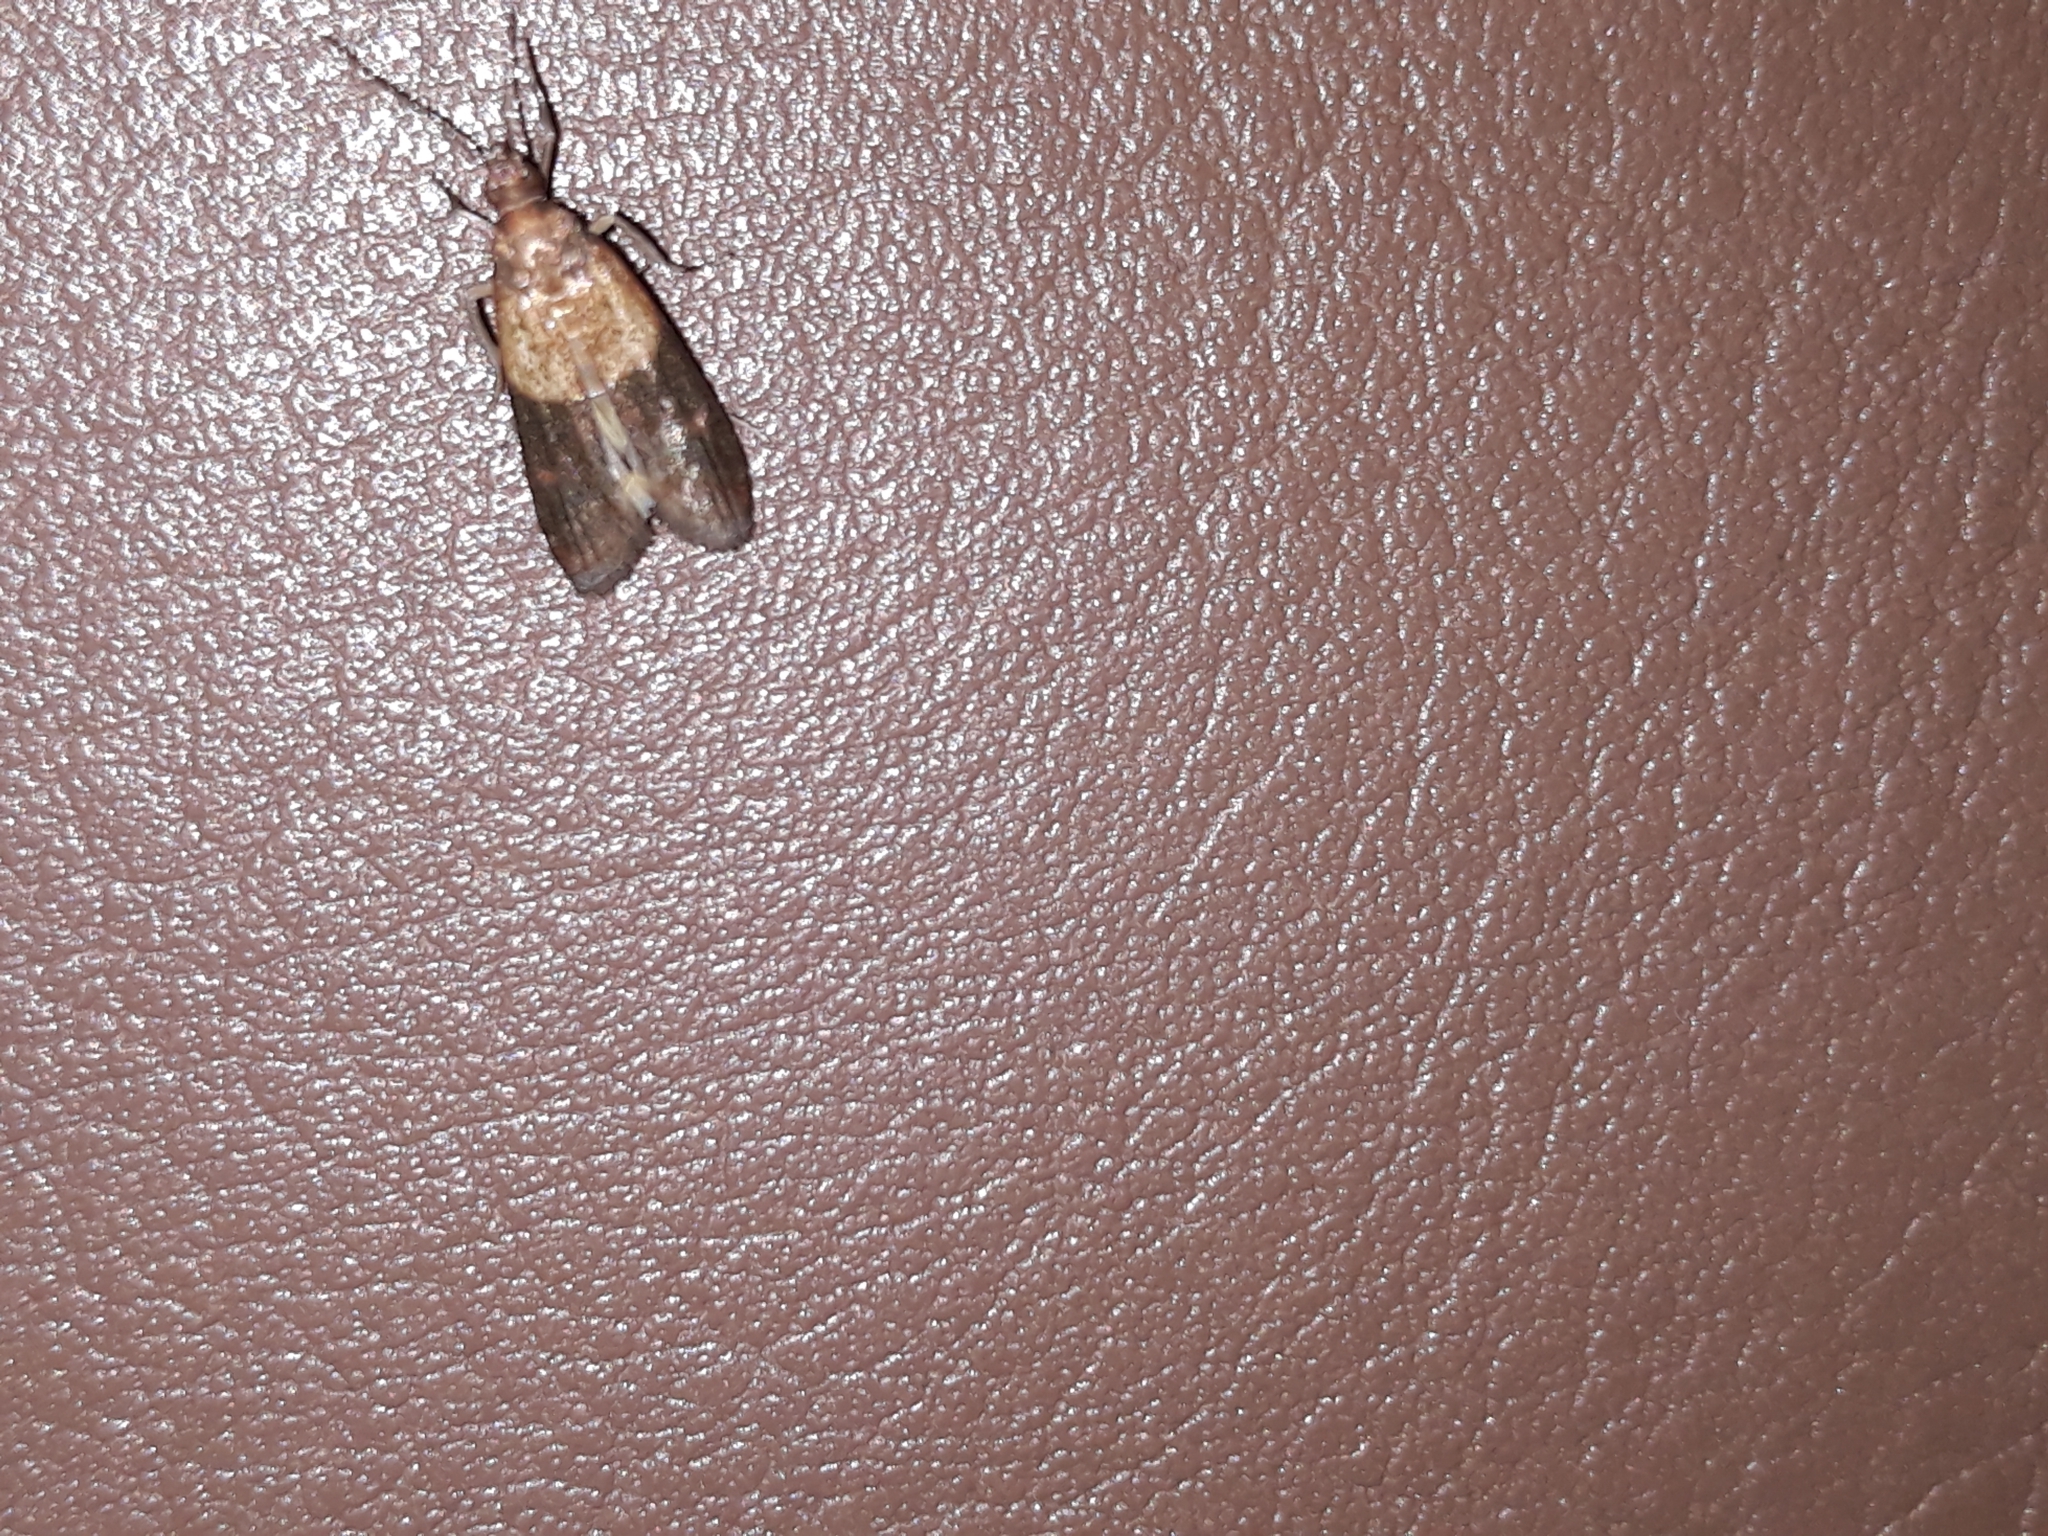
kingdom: Animalia
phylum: Arthropoda
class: Insecta
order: Lepidoptera
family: Pyralidae
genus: Plodia
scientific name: Plodia interpunctella
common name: Indian meal moth
